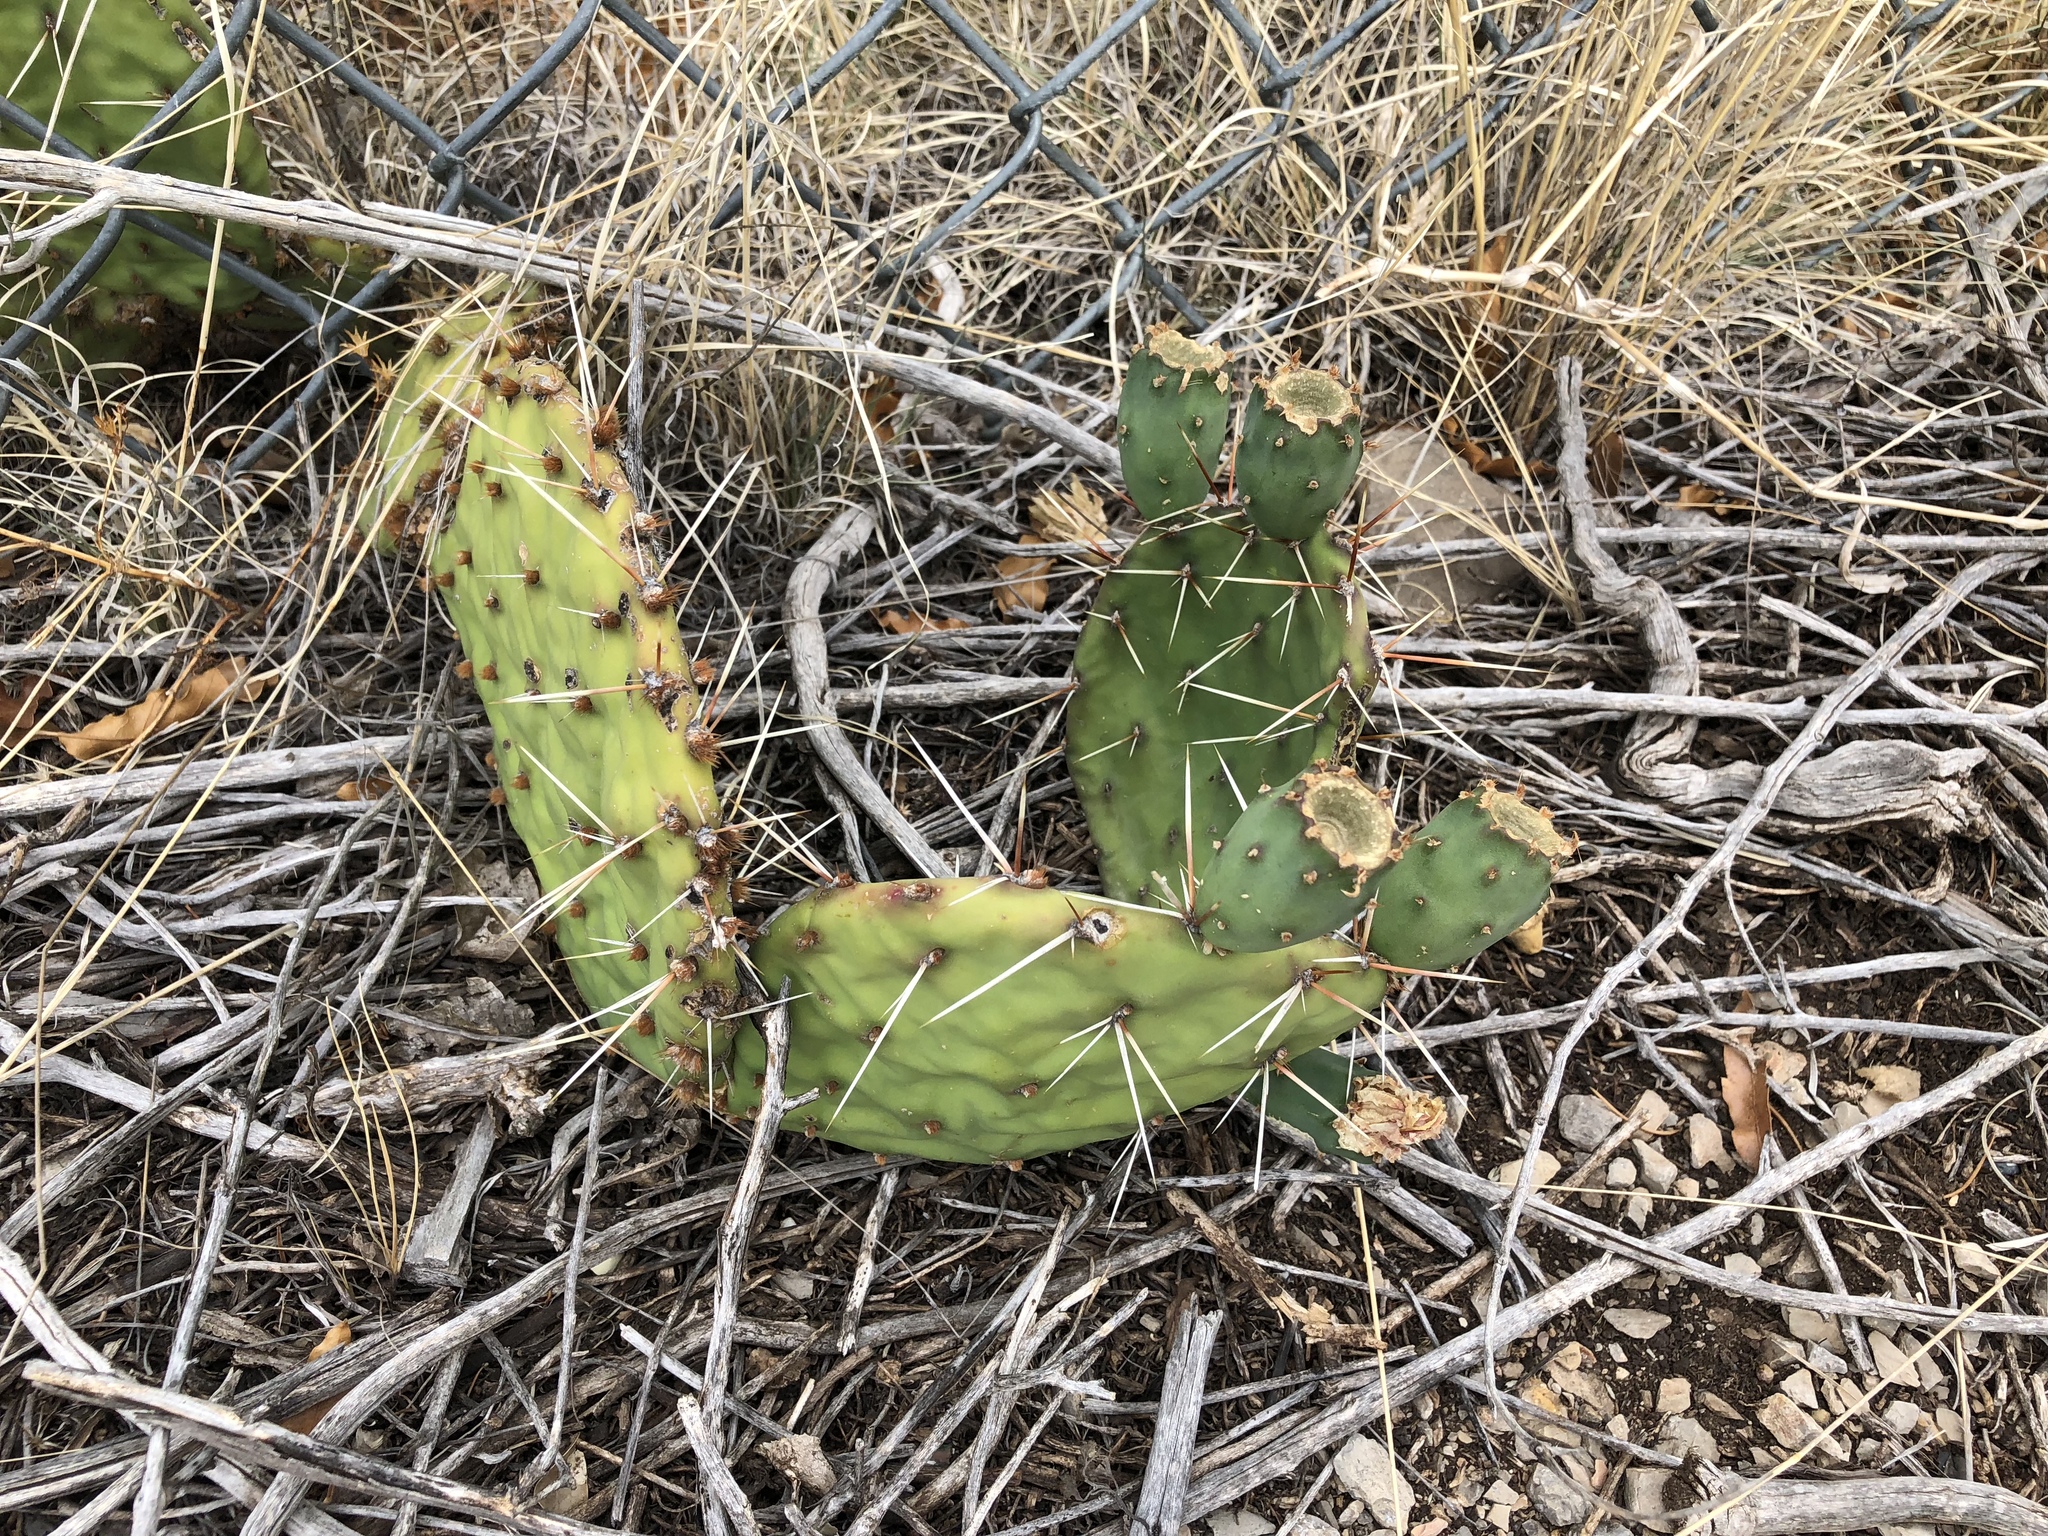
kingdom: Plantae
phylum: Tracheophyta
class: Magnoliopsida
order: Caryophyllales
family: Cactaceae
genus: Opuntia
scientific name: Opuntia phaeacantha
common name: New mexico prickly-pear
